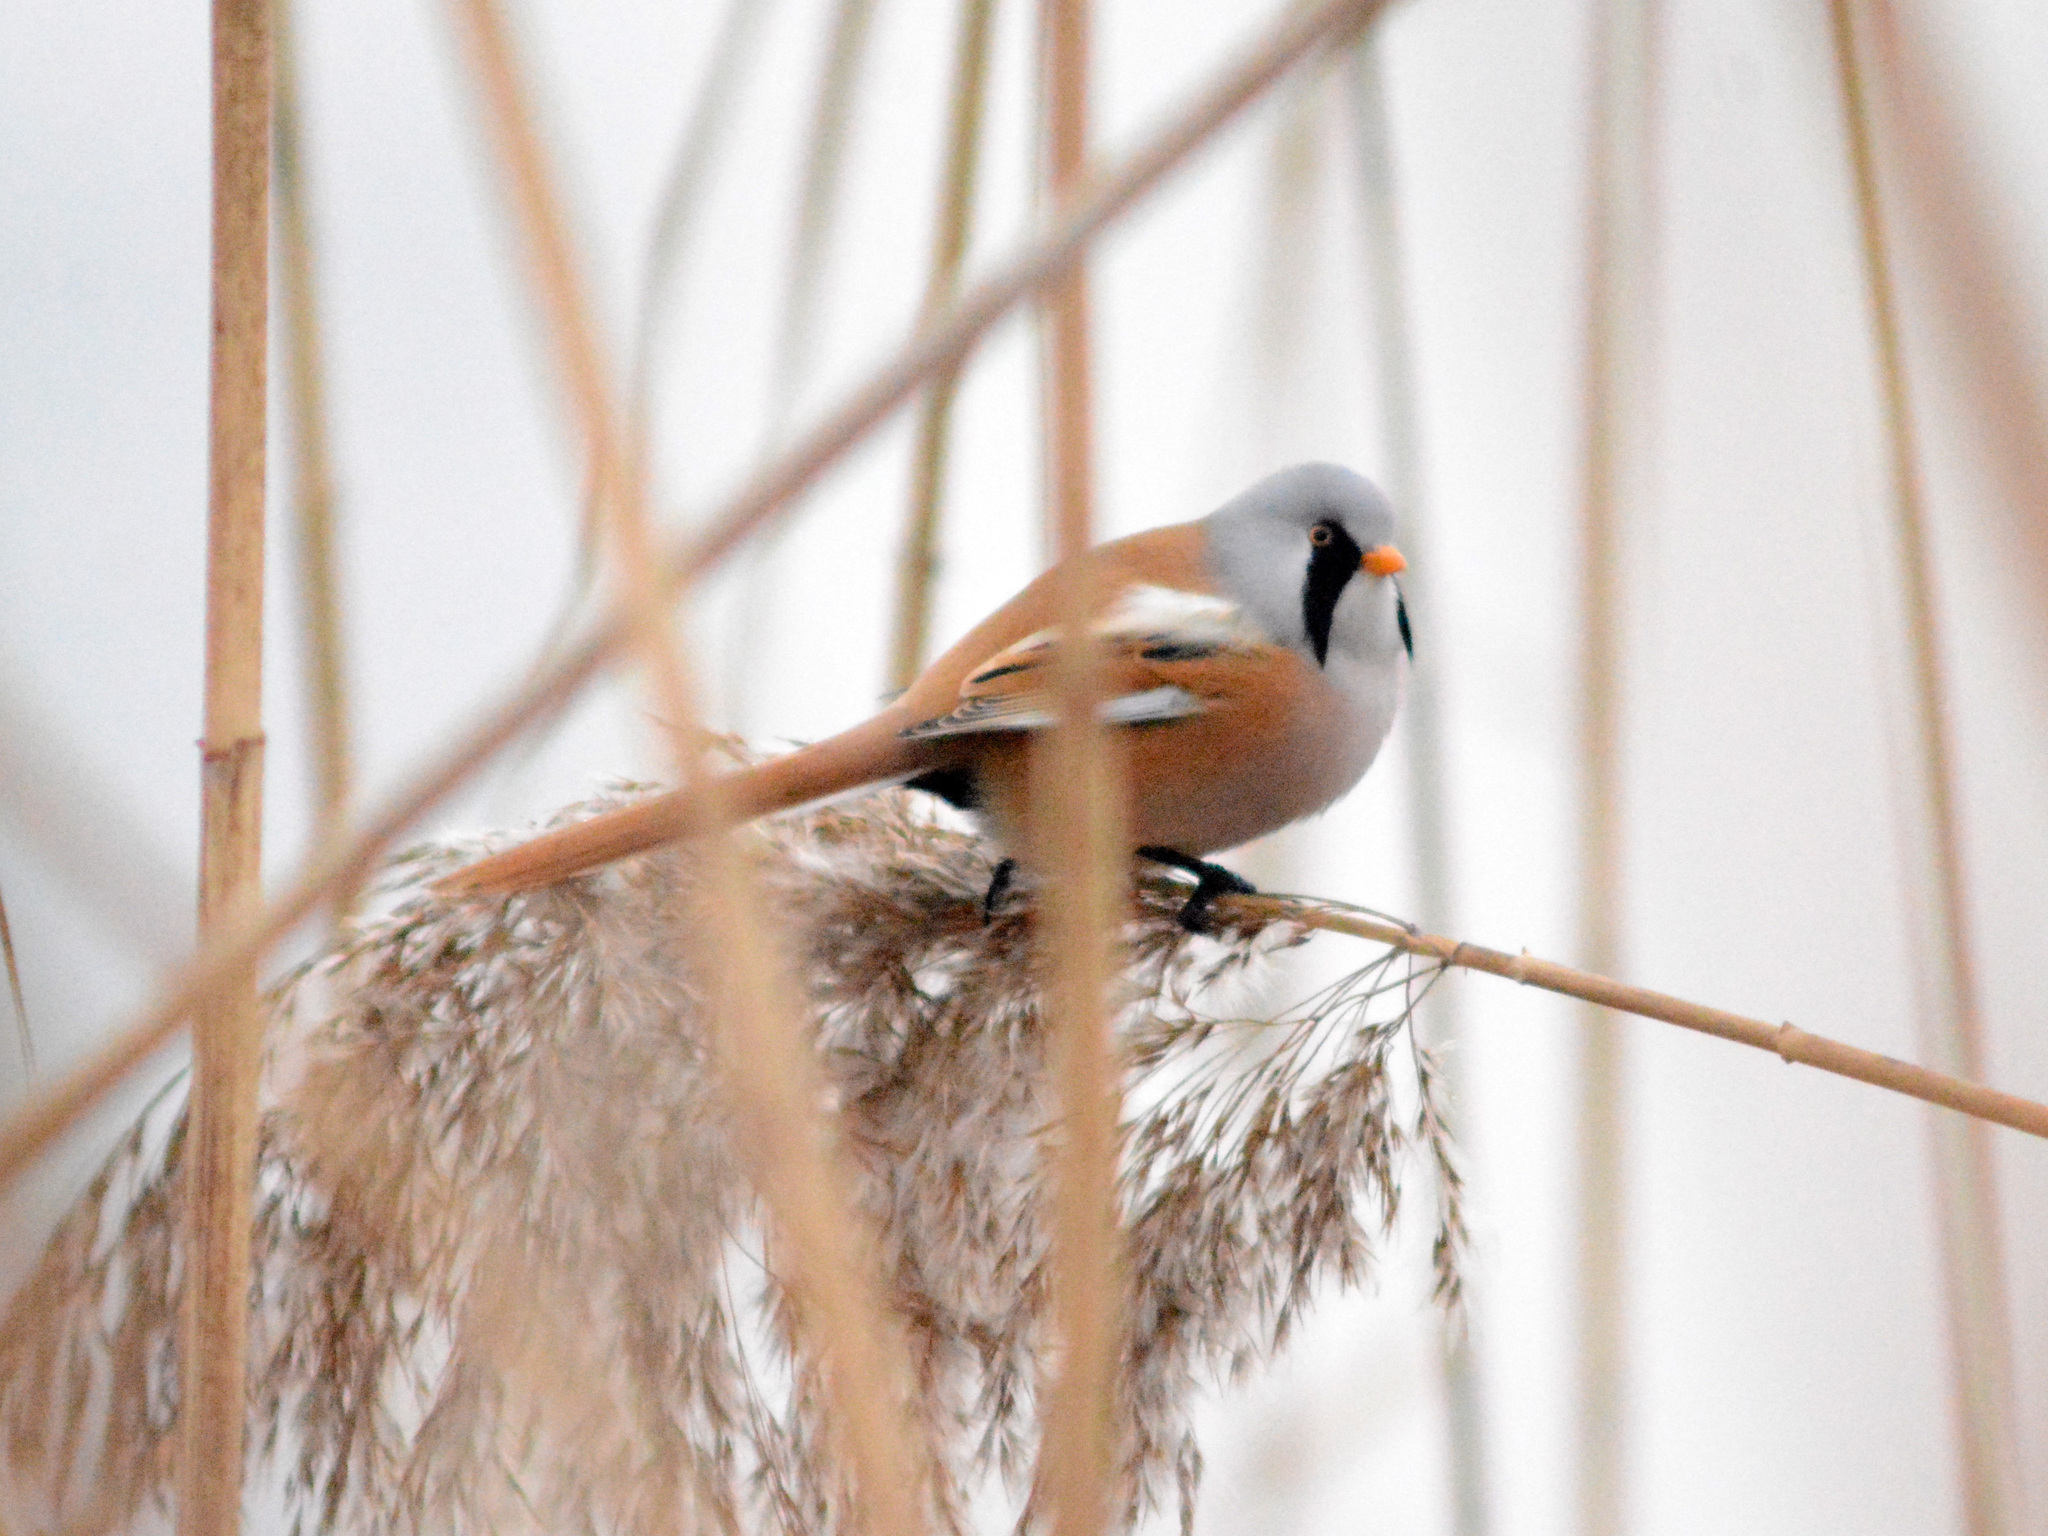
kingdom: Animalia
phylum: Chordata
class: Aves
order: Passeriformes
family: Panuridae
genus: Panurus
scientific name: Panurus biarmicus
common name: Bearded reedling
